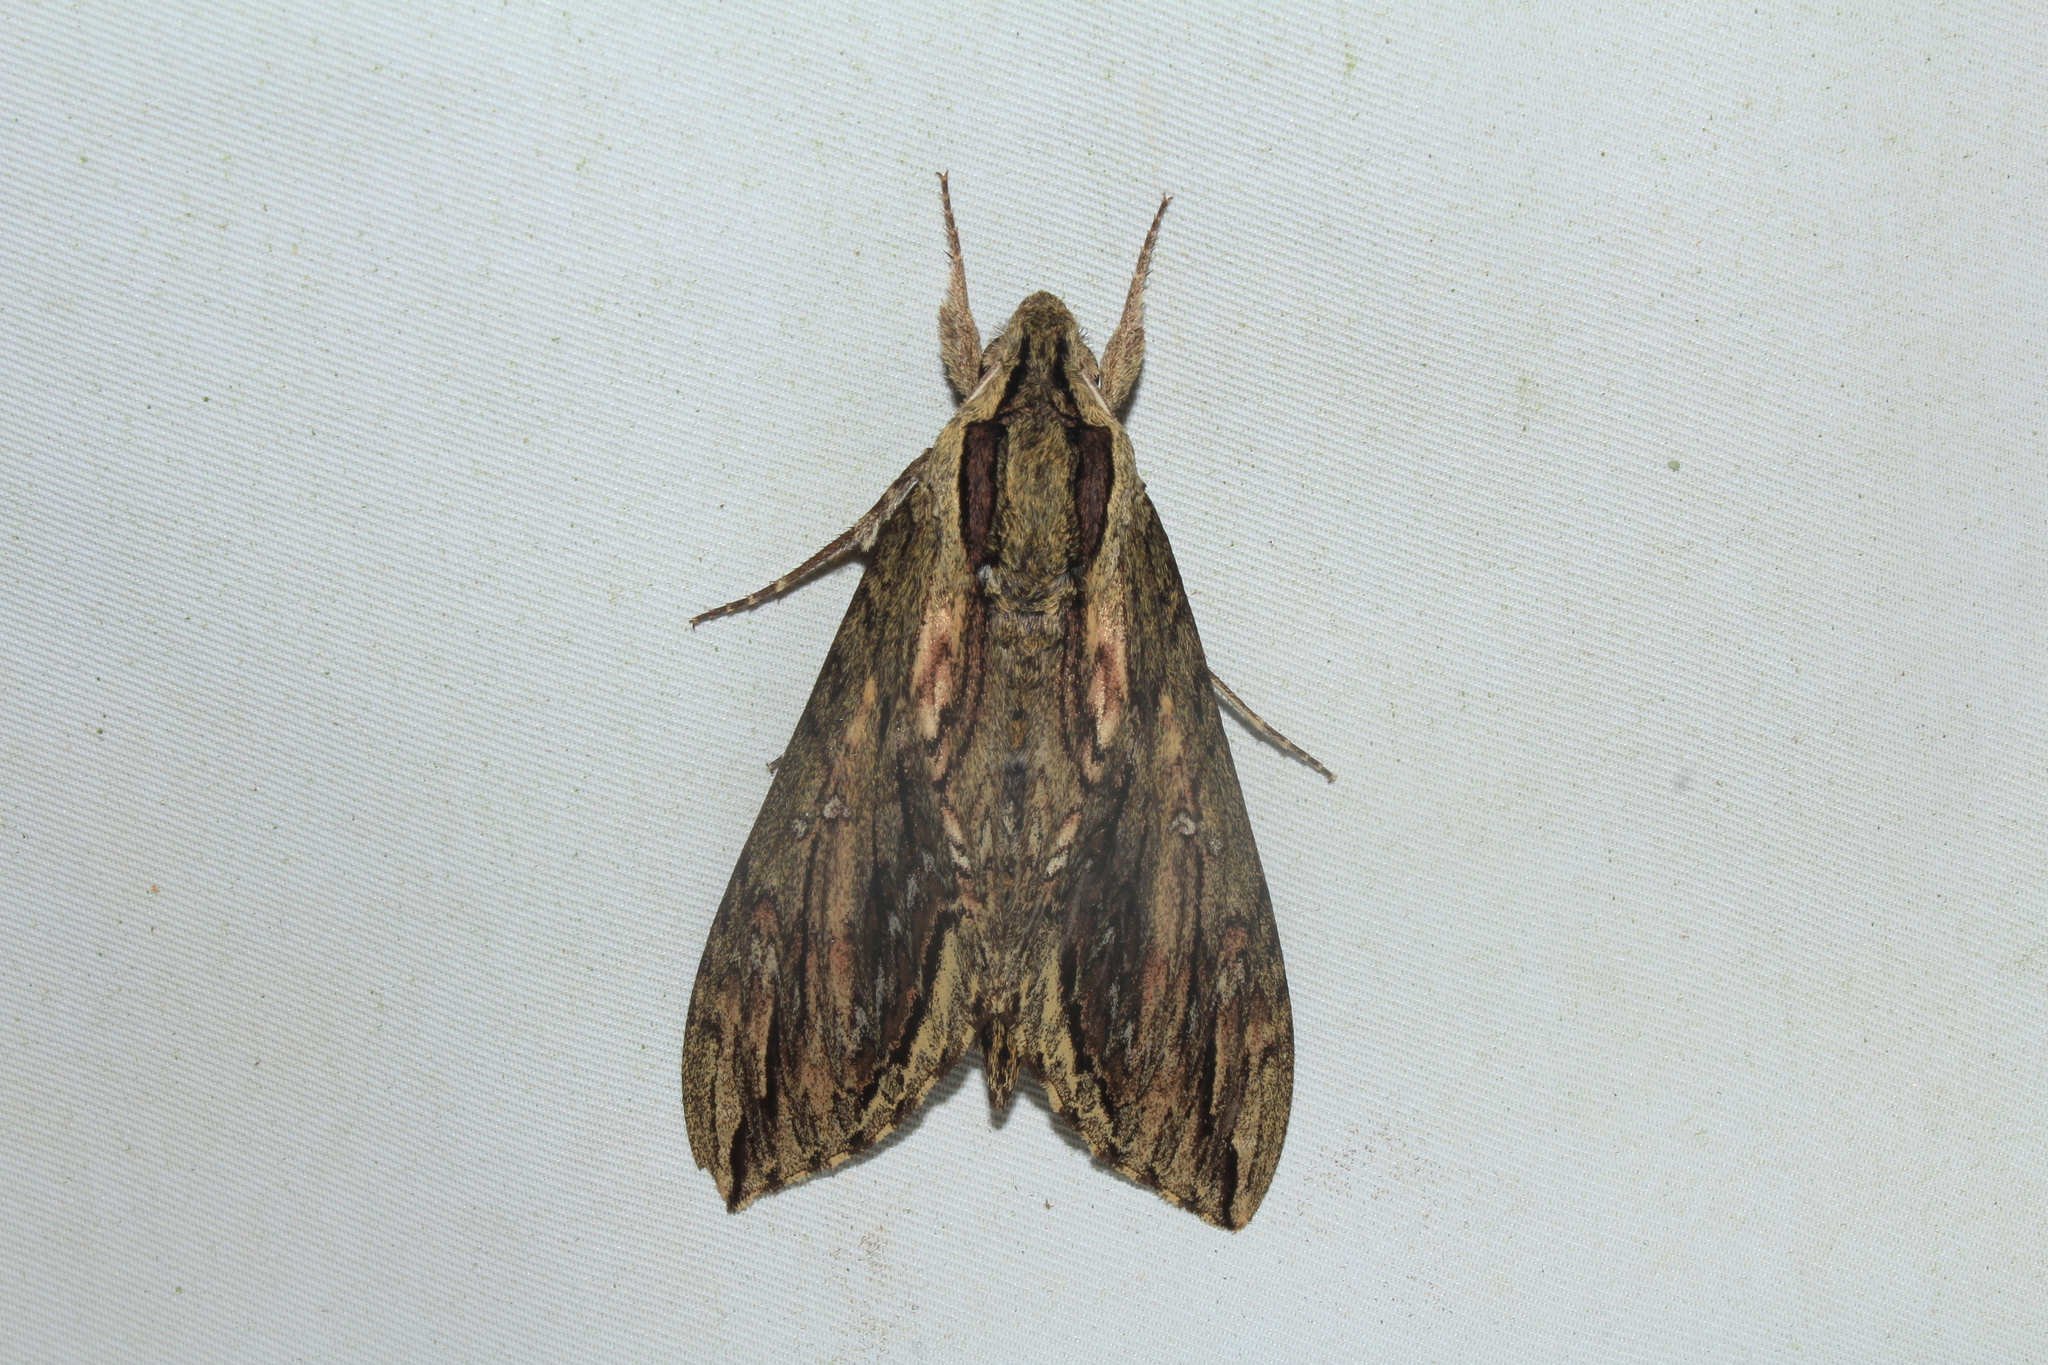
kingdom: Animalia
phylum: Arthropoda
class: Insecta
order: Lepidoptera
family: Sphingidae
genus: Lintneria
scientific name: Lintneria merops
